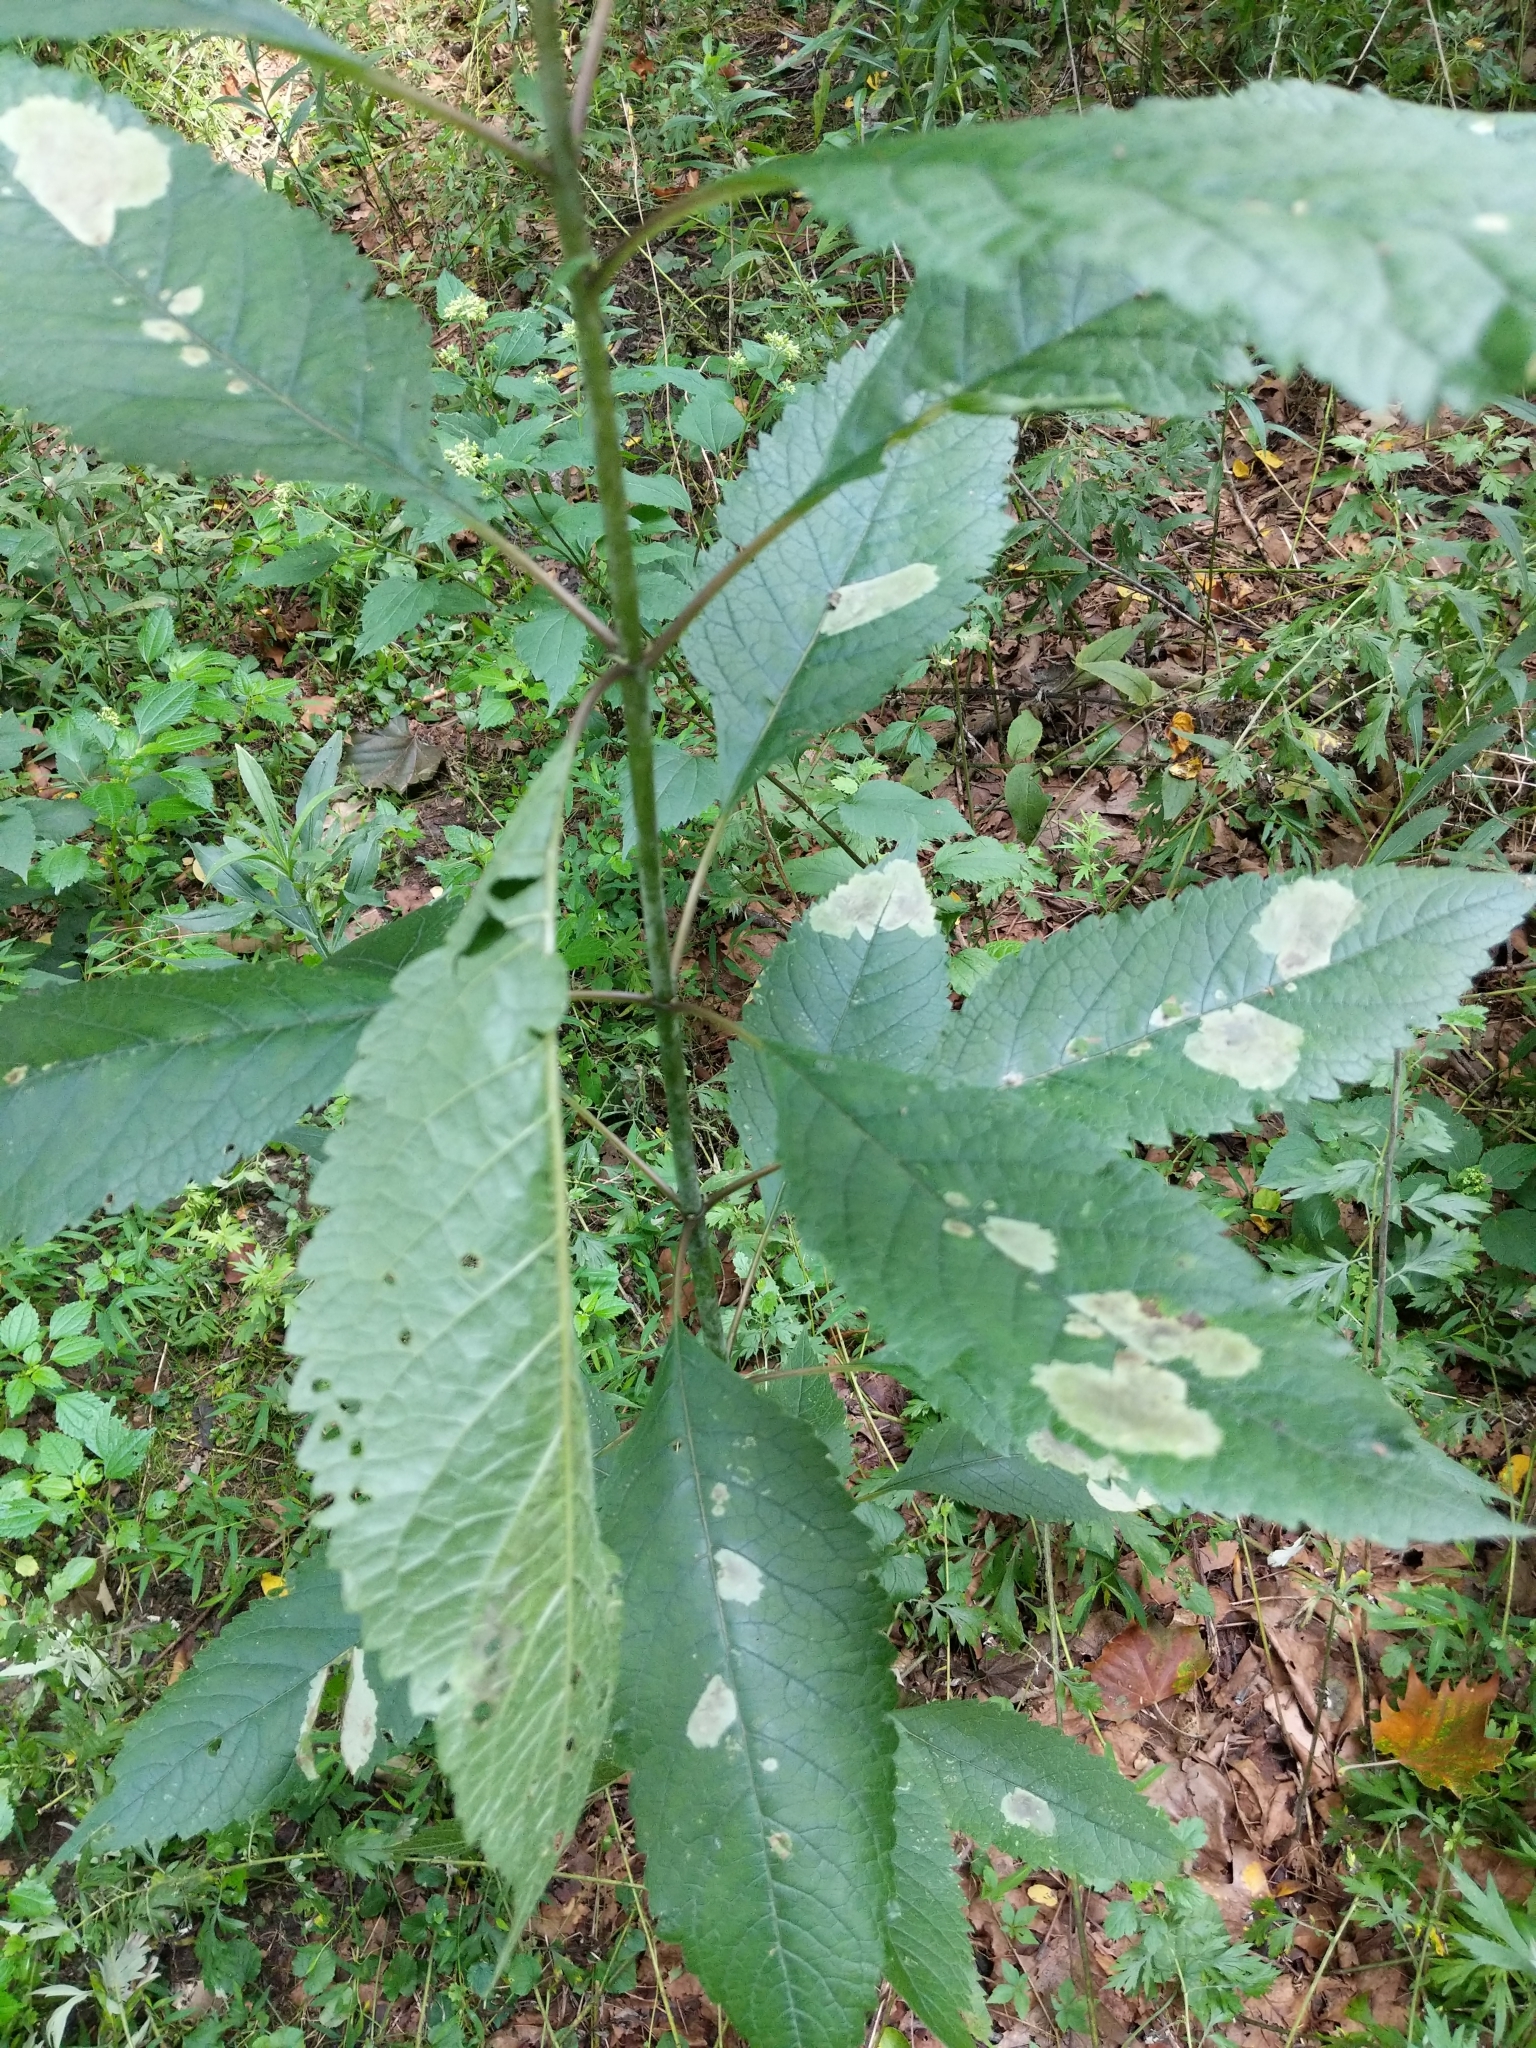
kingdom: Animalia
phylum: Arthropoda
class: Insecta
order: Diptera
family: Agromyzidae
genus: Calycomyza
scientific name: Calycomyza flavinotum
